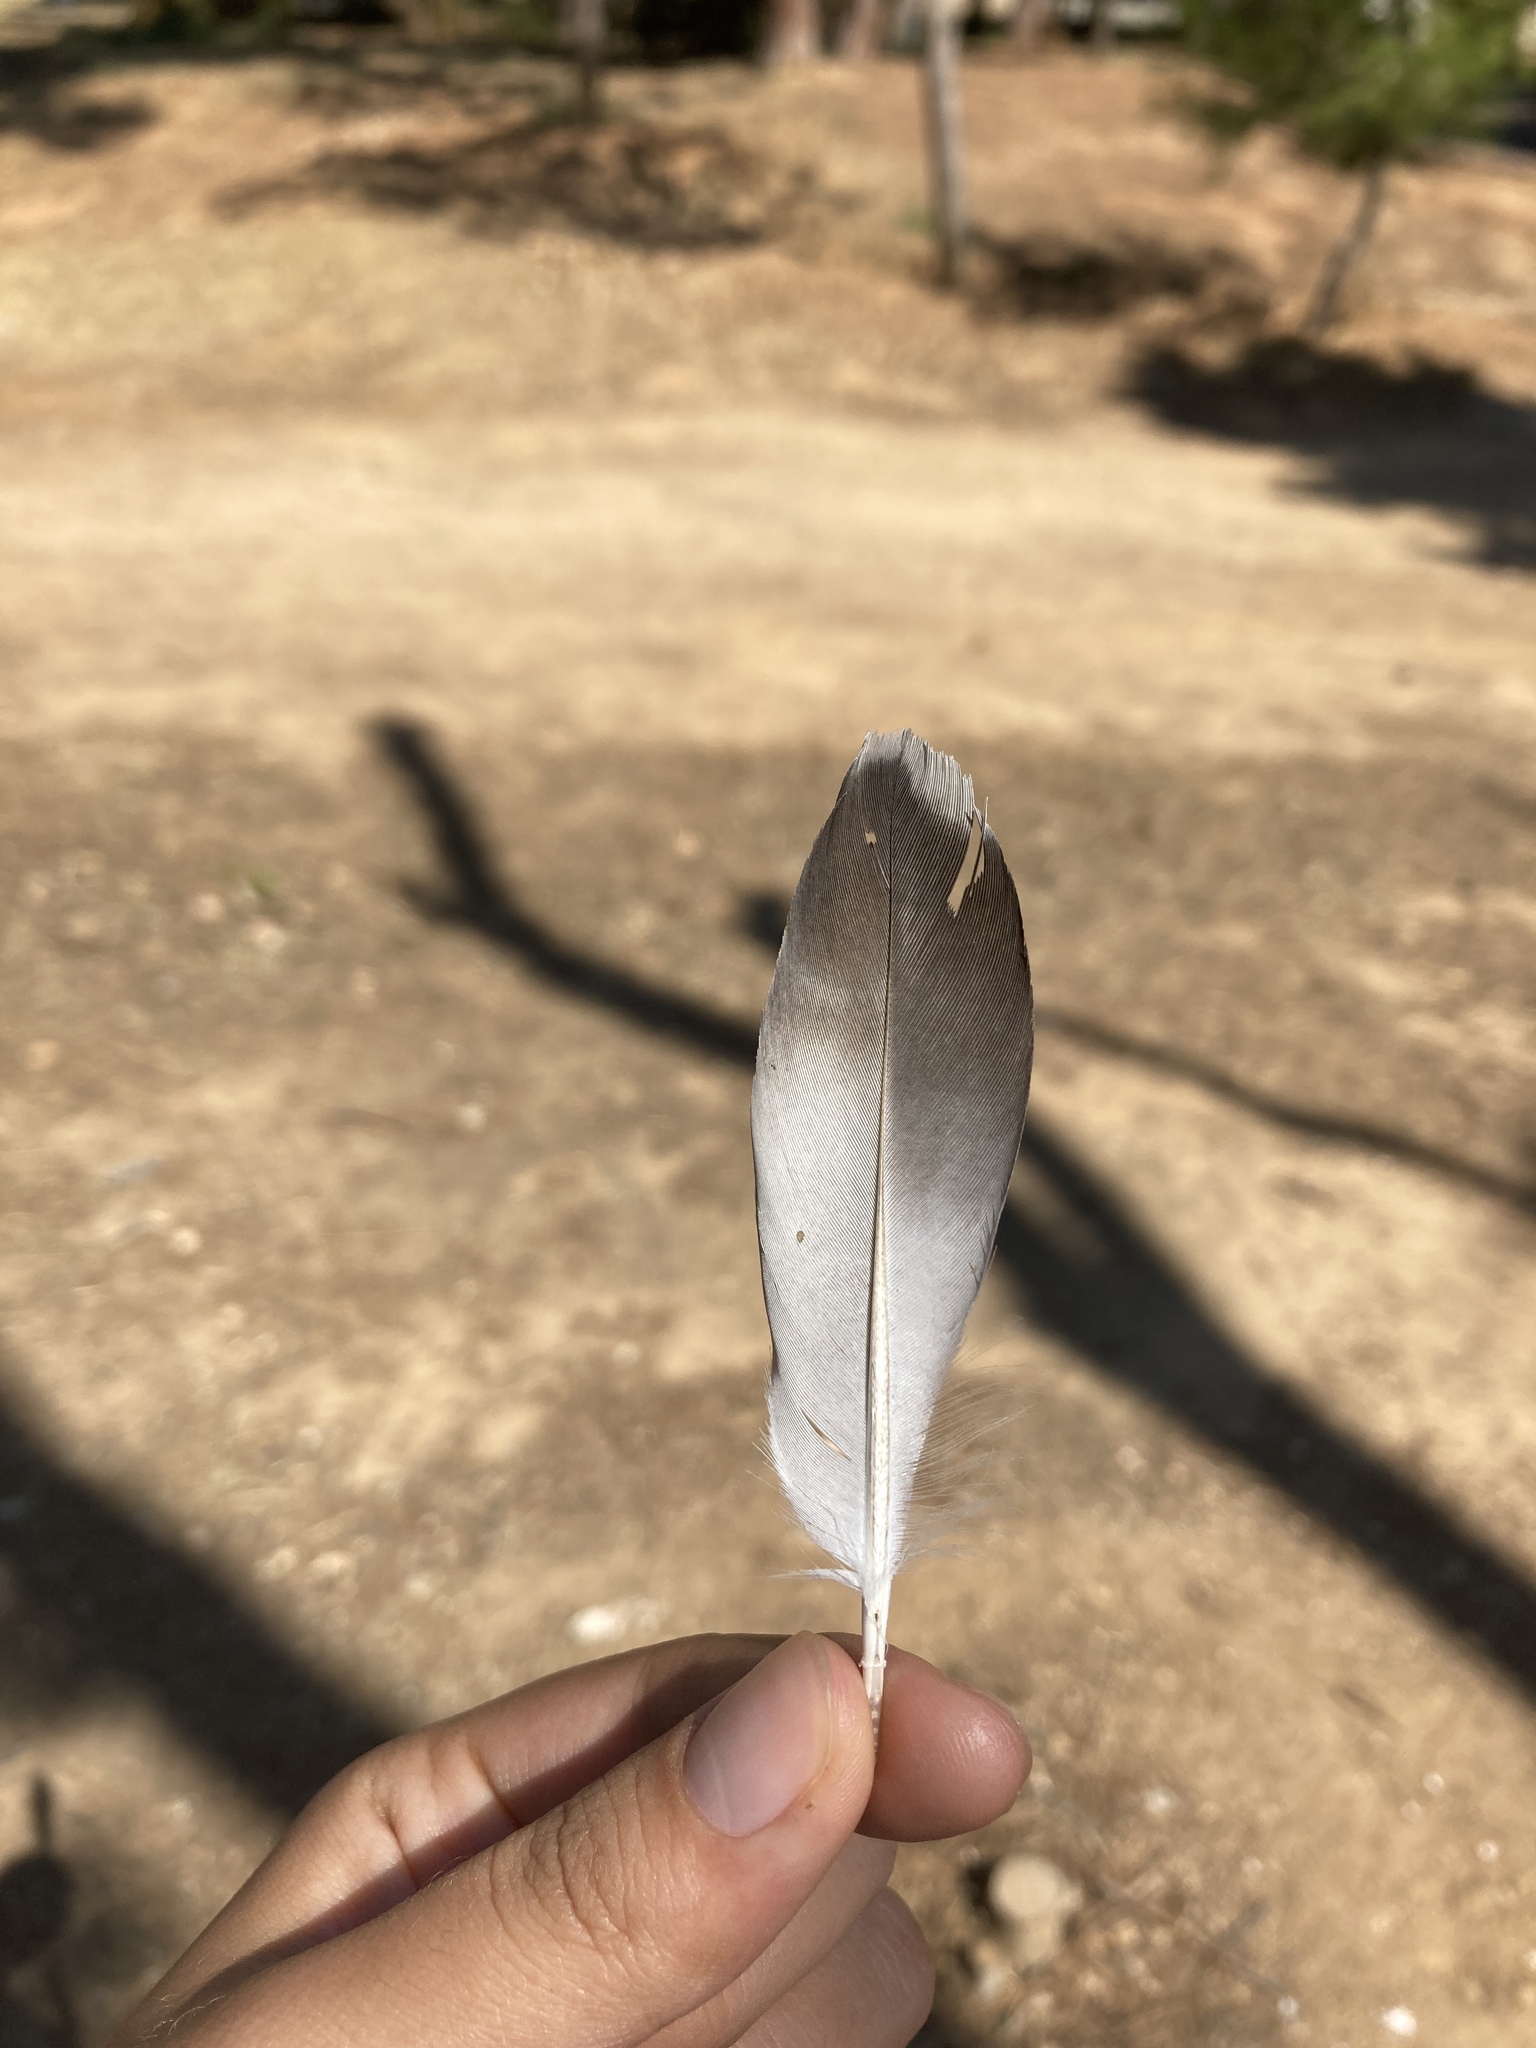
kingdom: Animalia
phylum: Chordata
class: Aves
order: Columbiformes
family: Columbidae
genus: Columba
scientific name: Columba livia
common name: Rock pigeon
